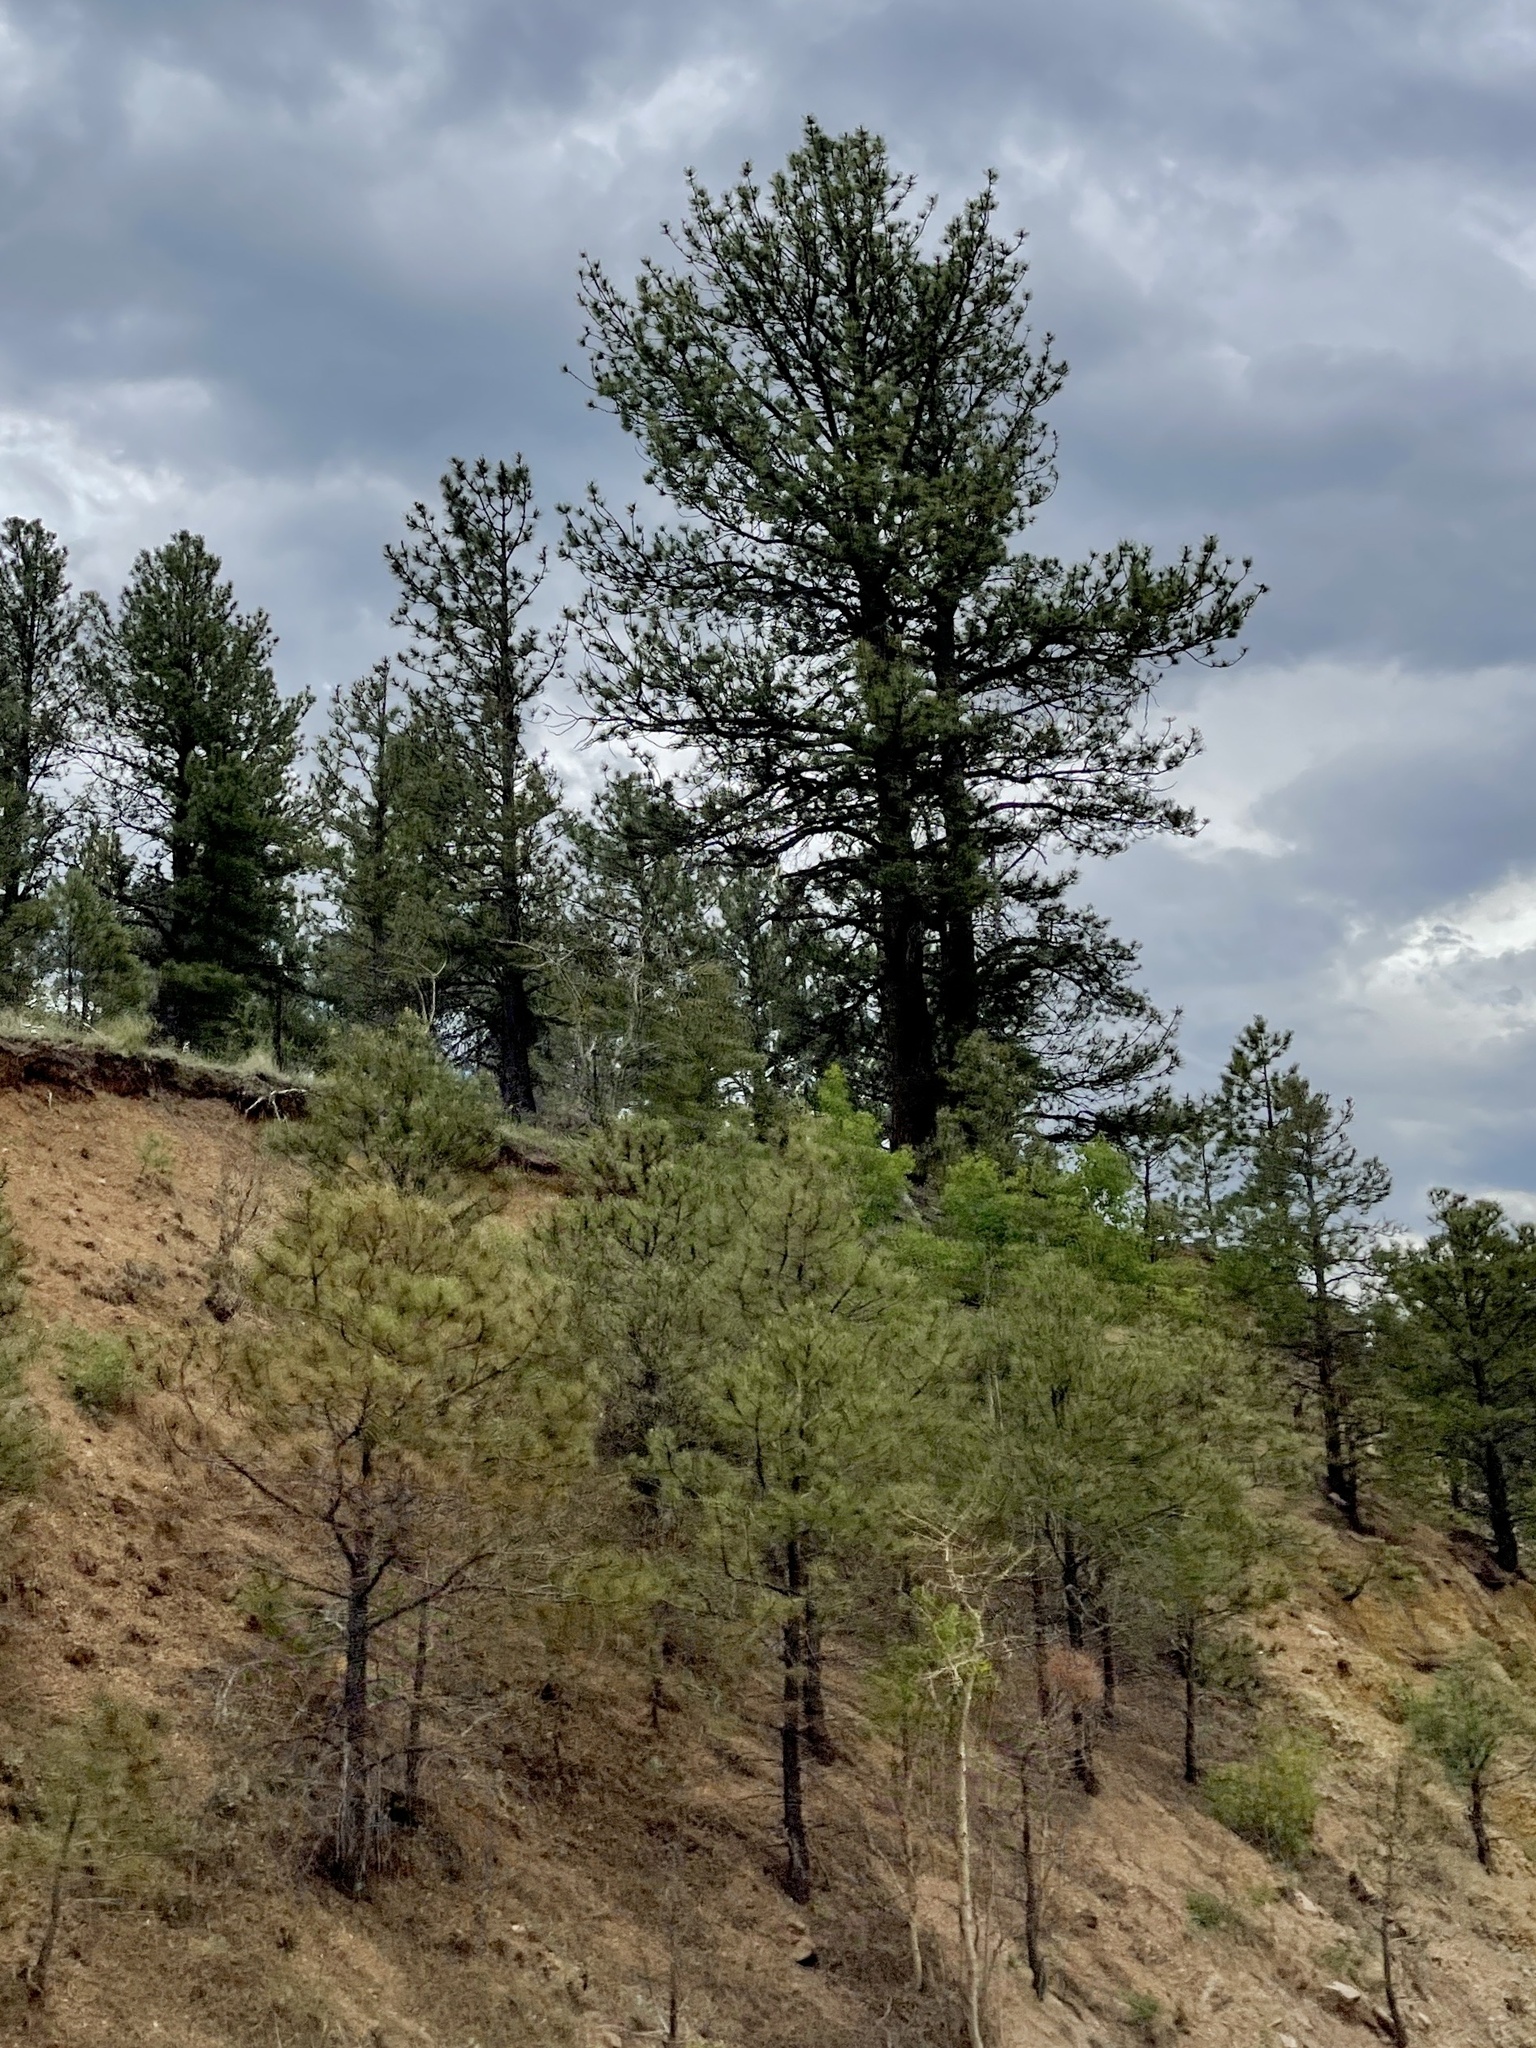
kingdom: Plantae
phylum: Tracheophyta
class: Pinopsida
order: Pinales
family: Pinaceae
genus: Pinus
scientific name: Pinus ponderosa
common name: Western yellow-pine
